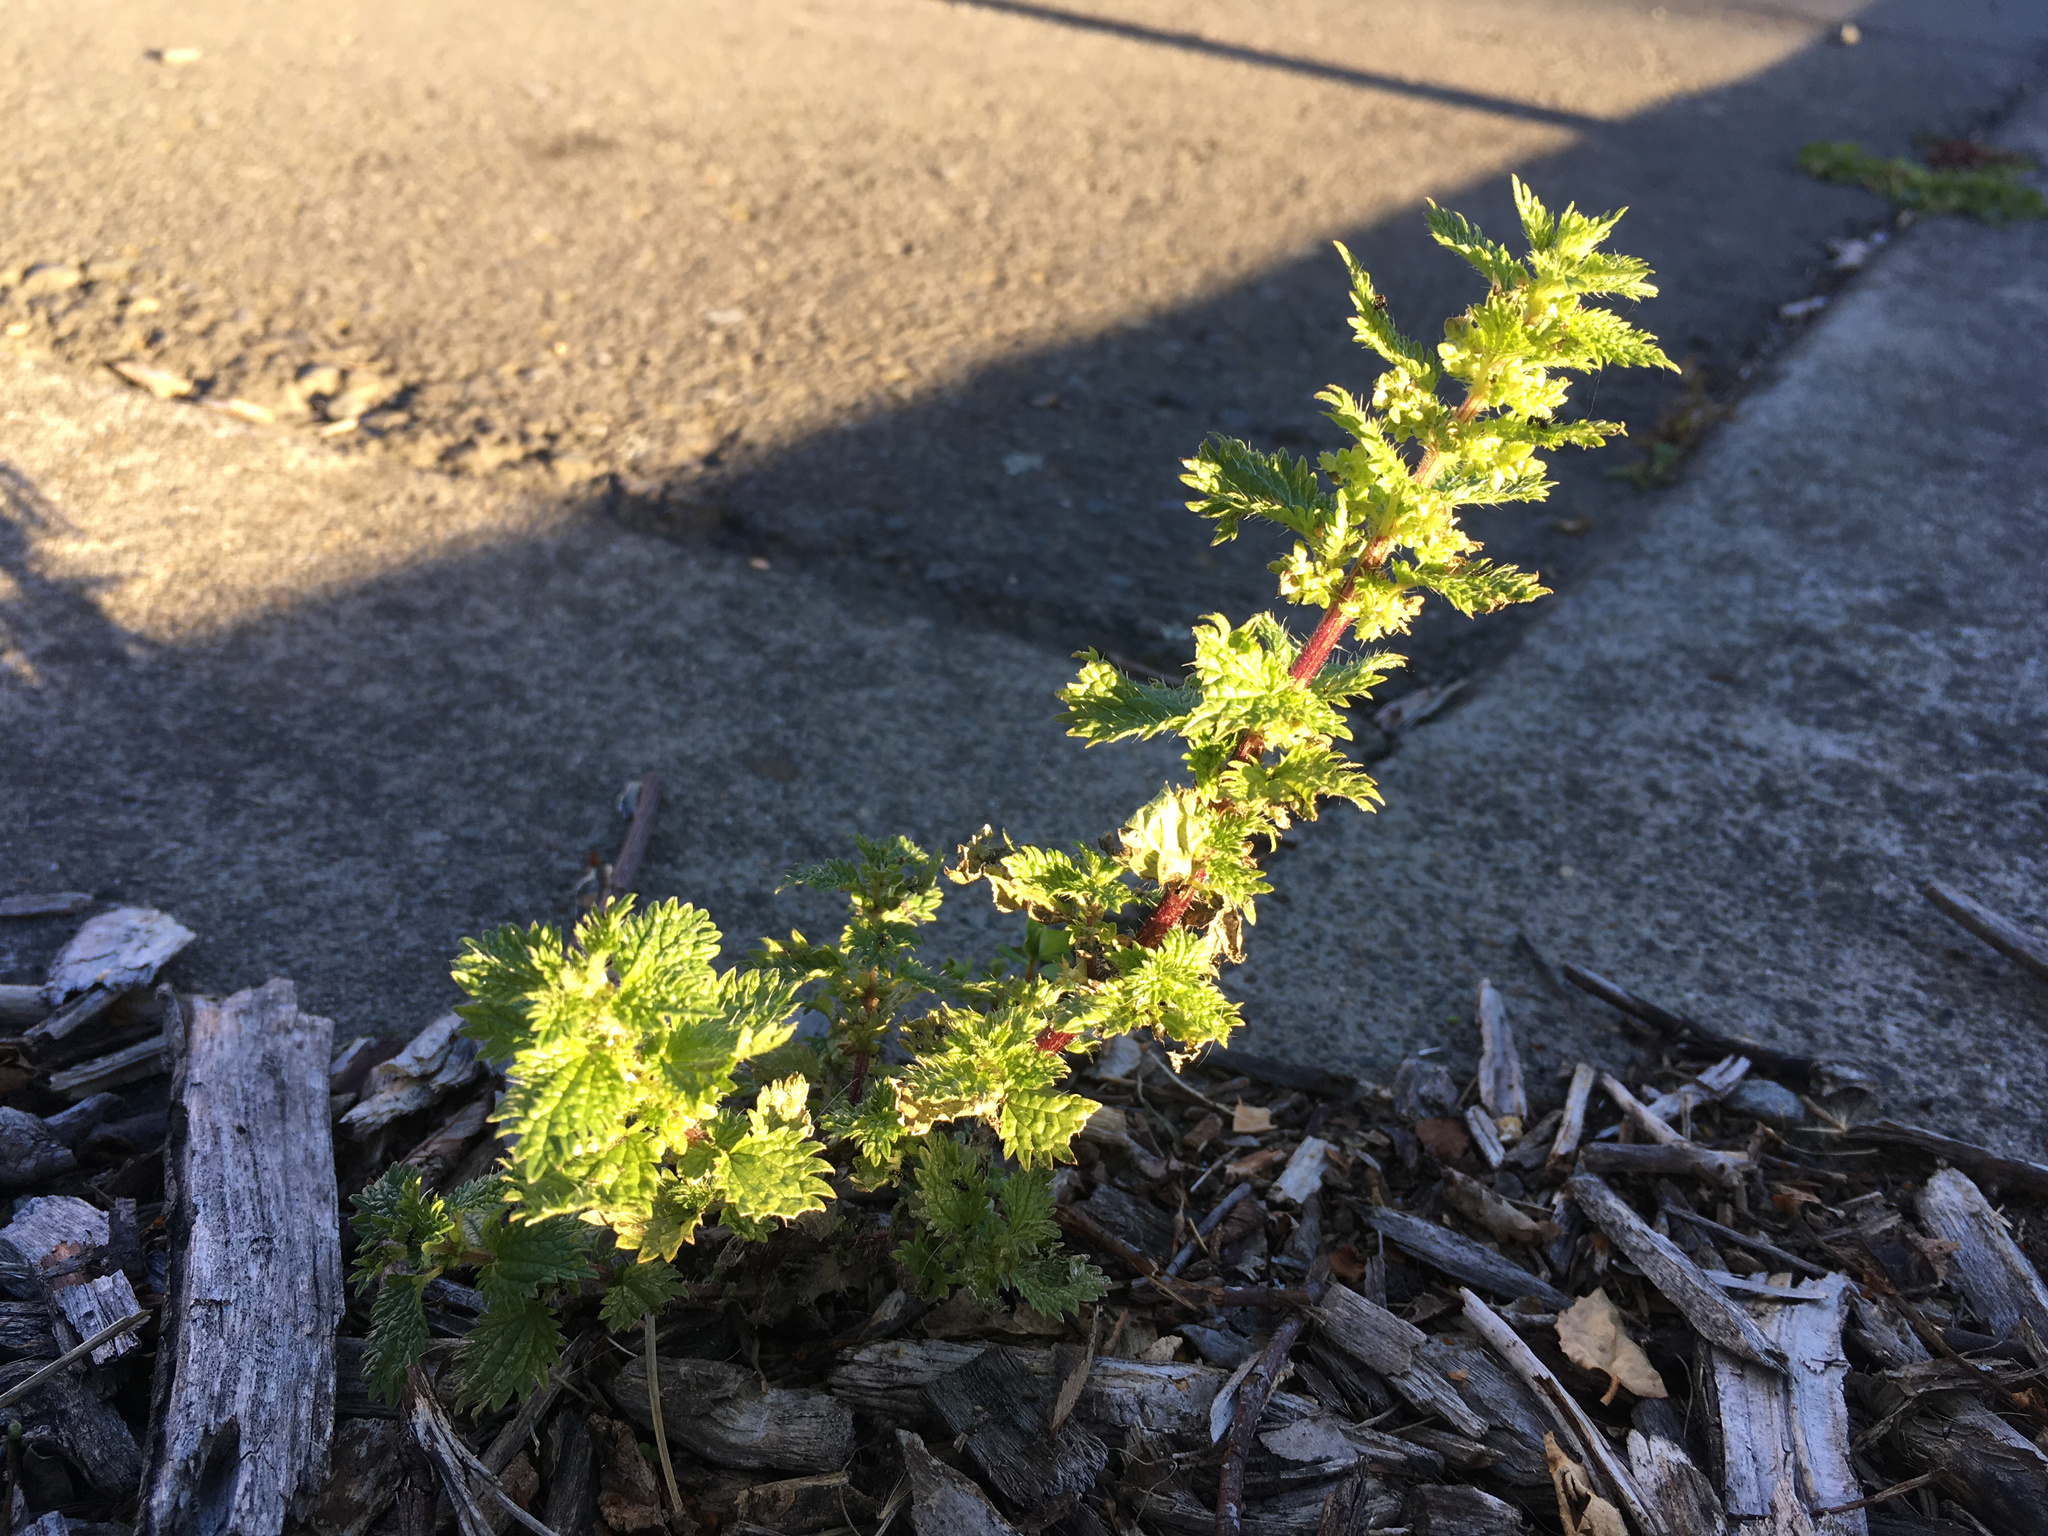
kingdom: Plantae
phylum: Tracheophyta
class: Magnoliopsida
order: Rosales
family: Urticaceae
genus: Urtica
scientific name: Urtica urens
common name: Dwarf nettle
